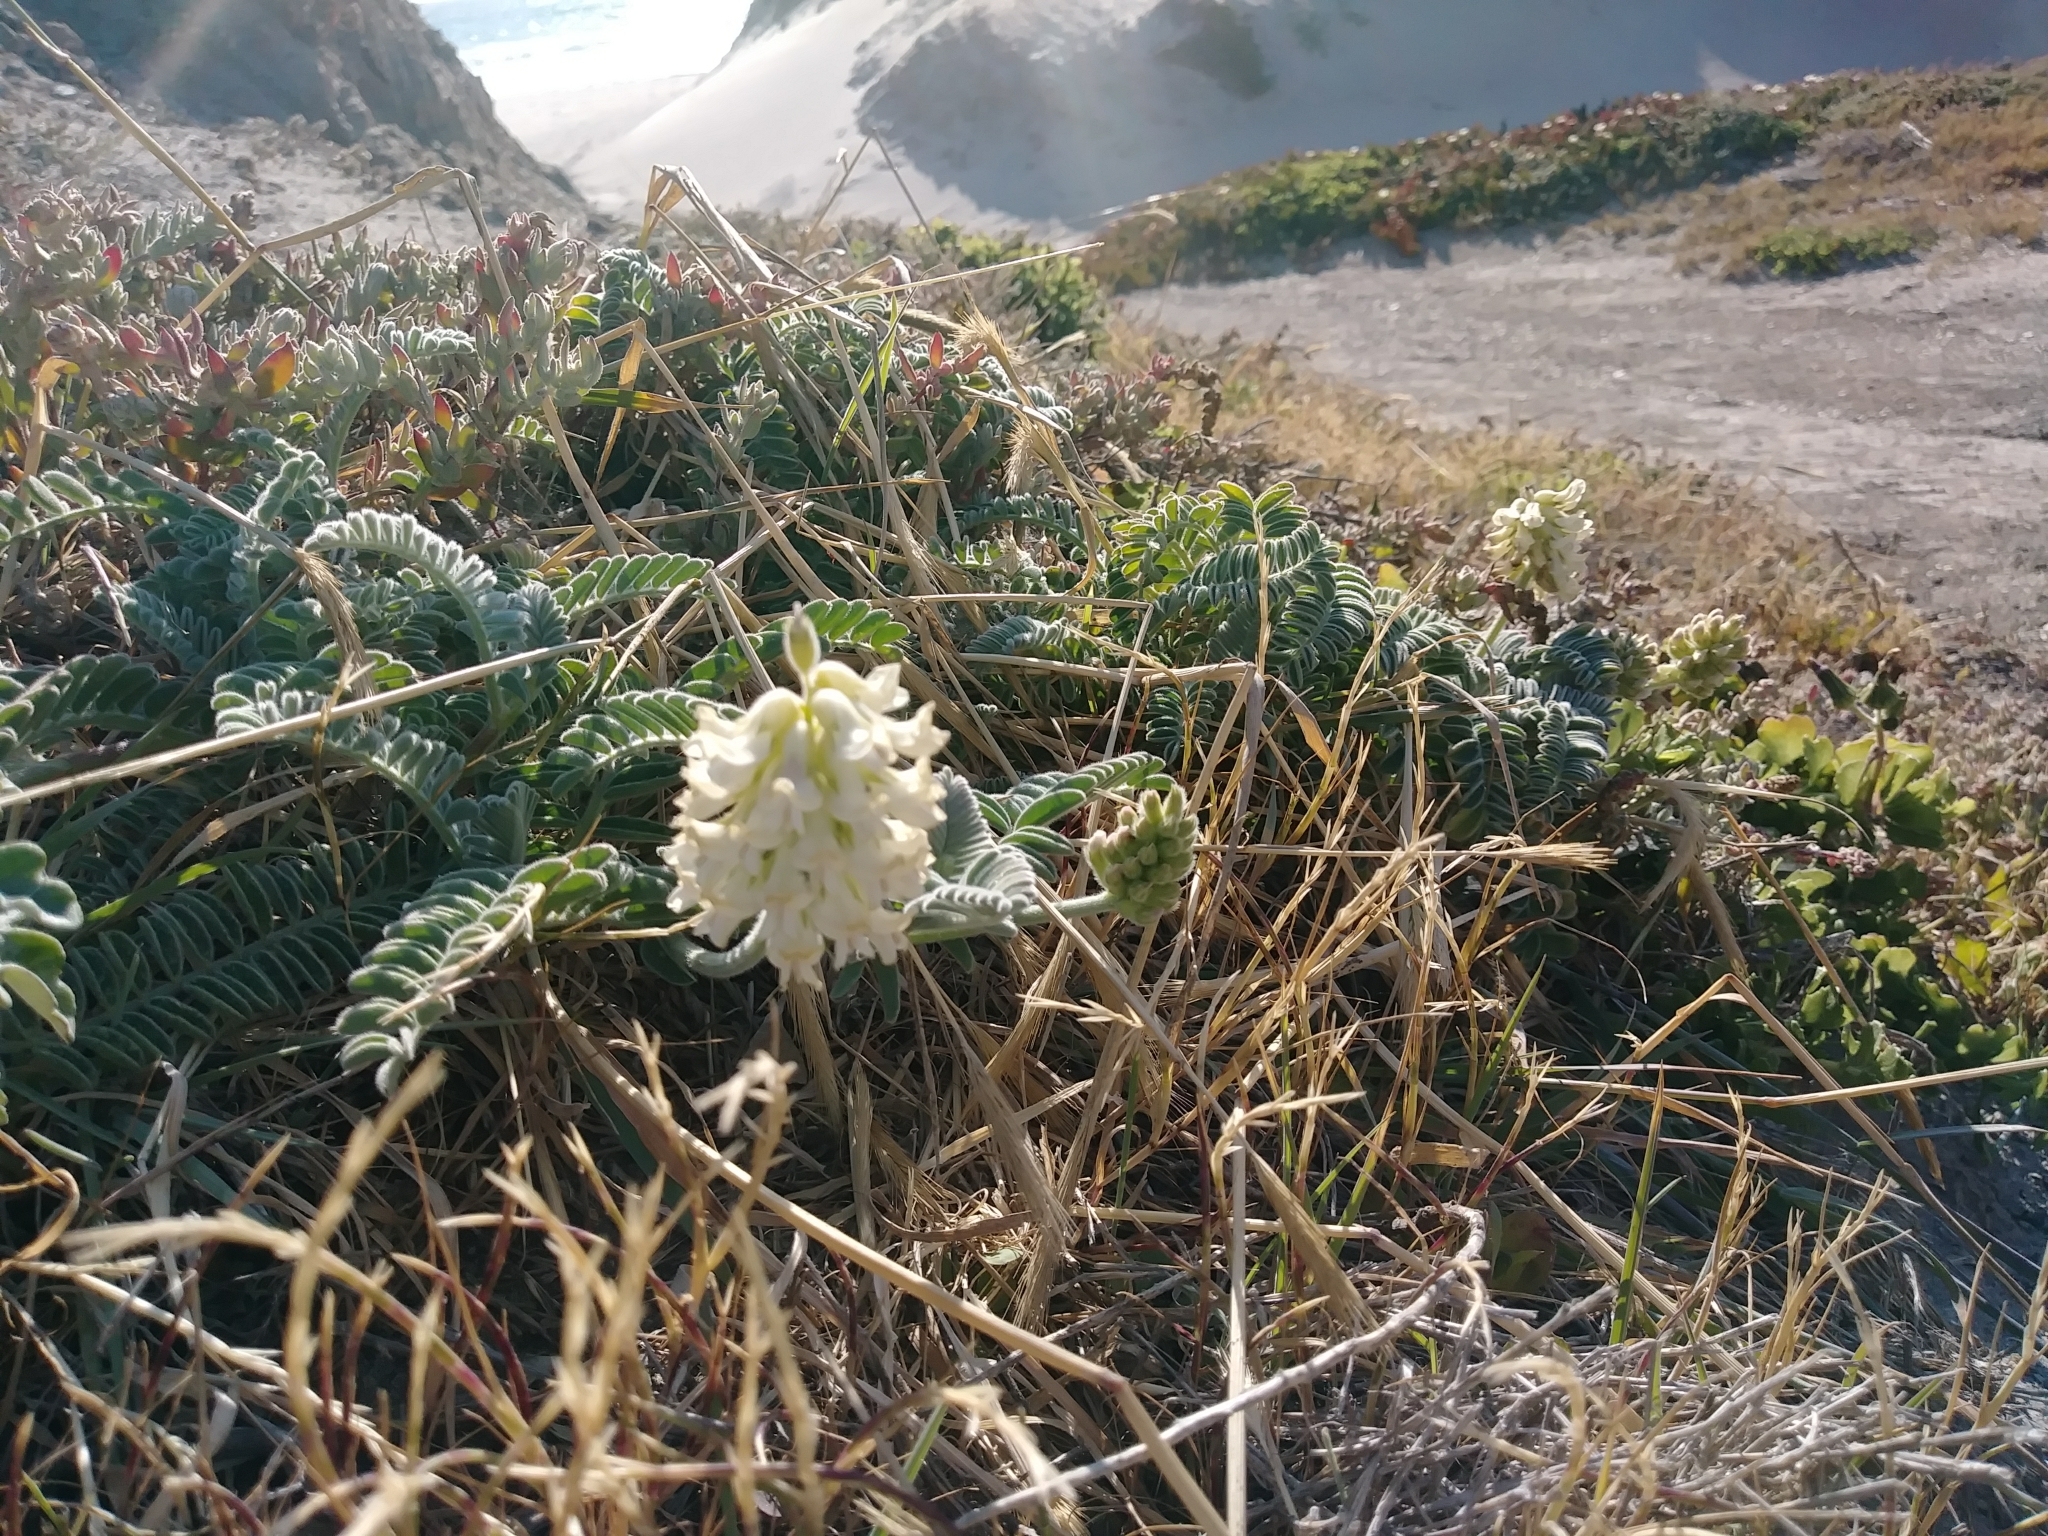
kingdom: Plantae
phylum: Tracheophyta
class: Magnoliopsida
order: Fabales
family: Fabaceae
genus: Astragalus
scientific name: Astragalus nuttallii
